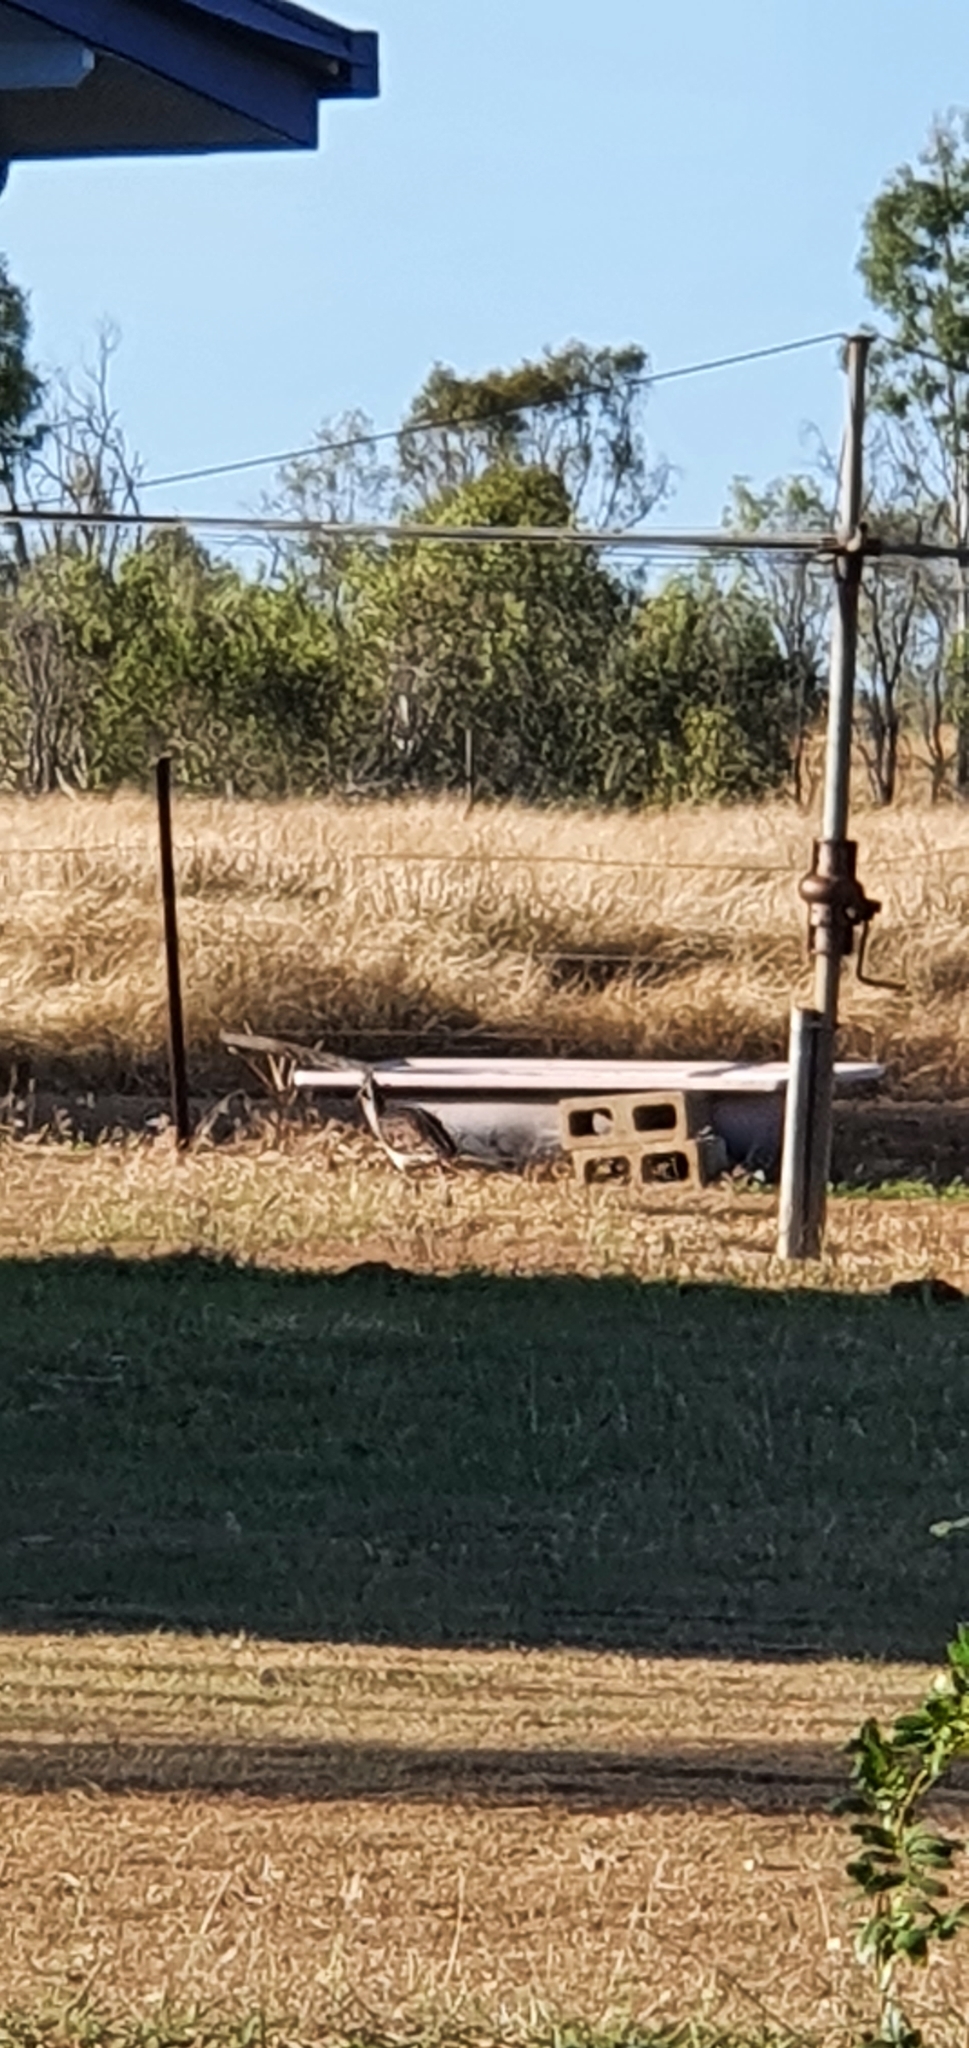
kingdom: Animalia
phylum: Chordata
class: Aves
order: Pelecaniformes
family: Threskiornithidae
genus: Threskiornis
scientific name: Threskiornis spinicollis
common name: Straw-necked ibis
